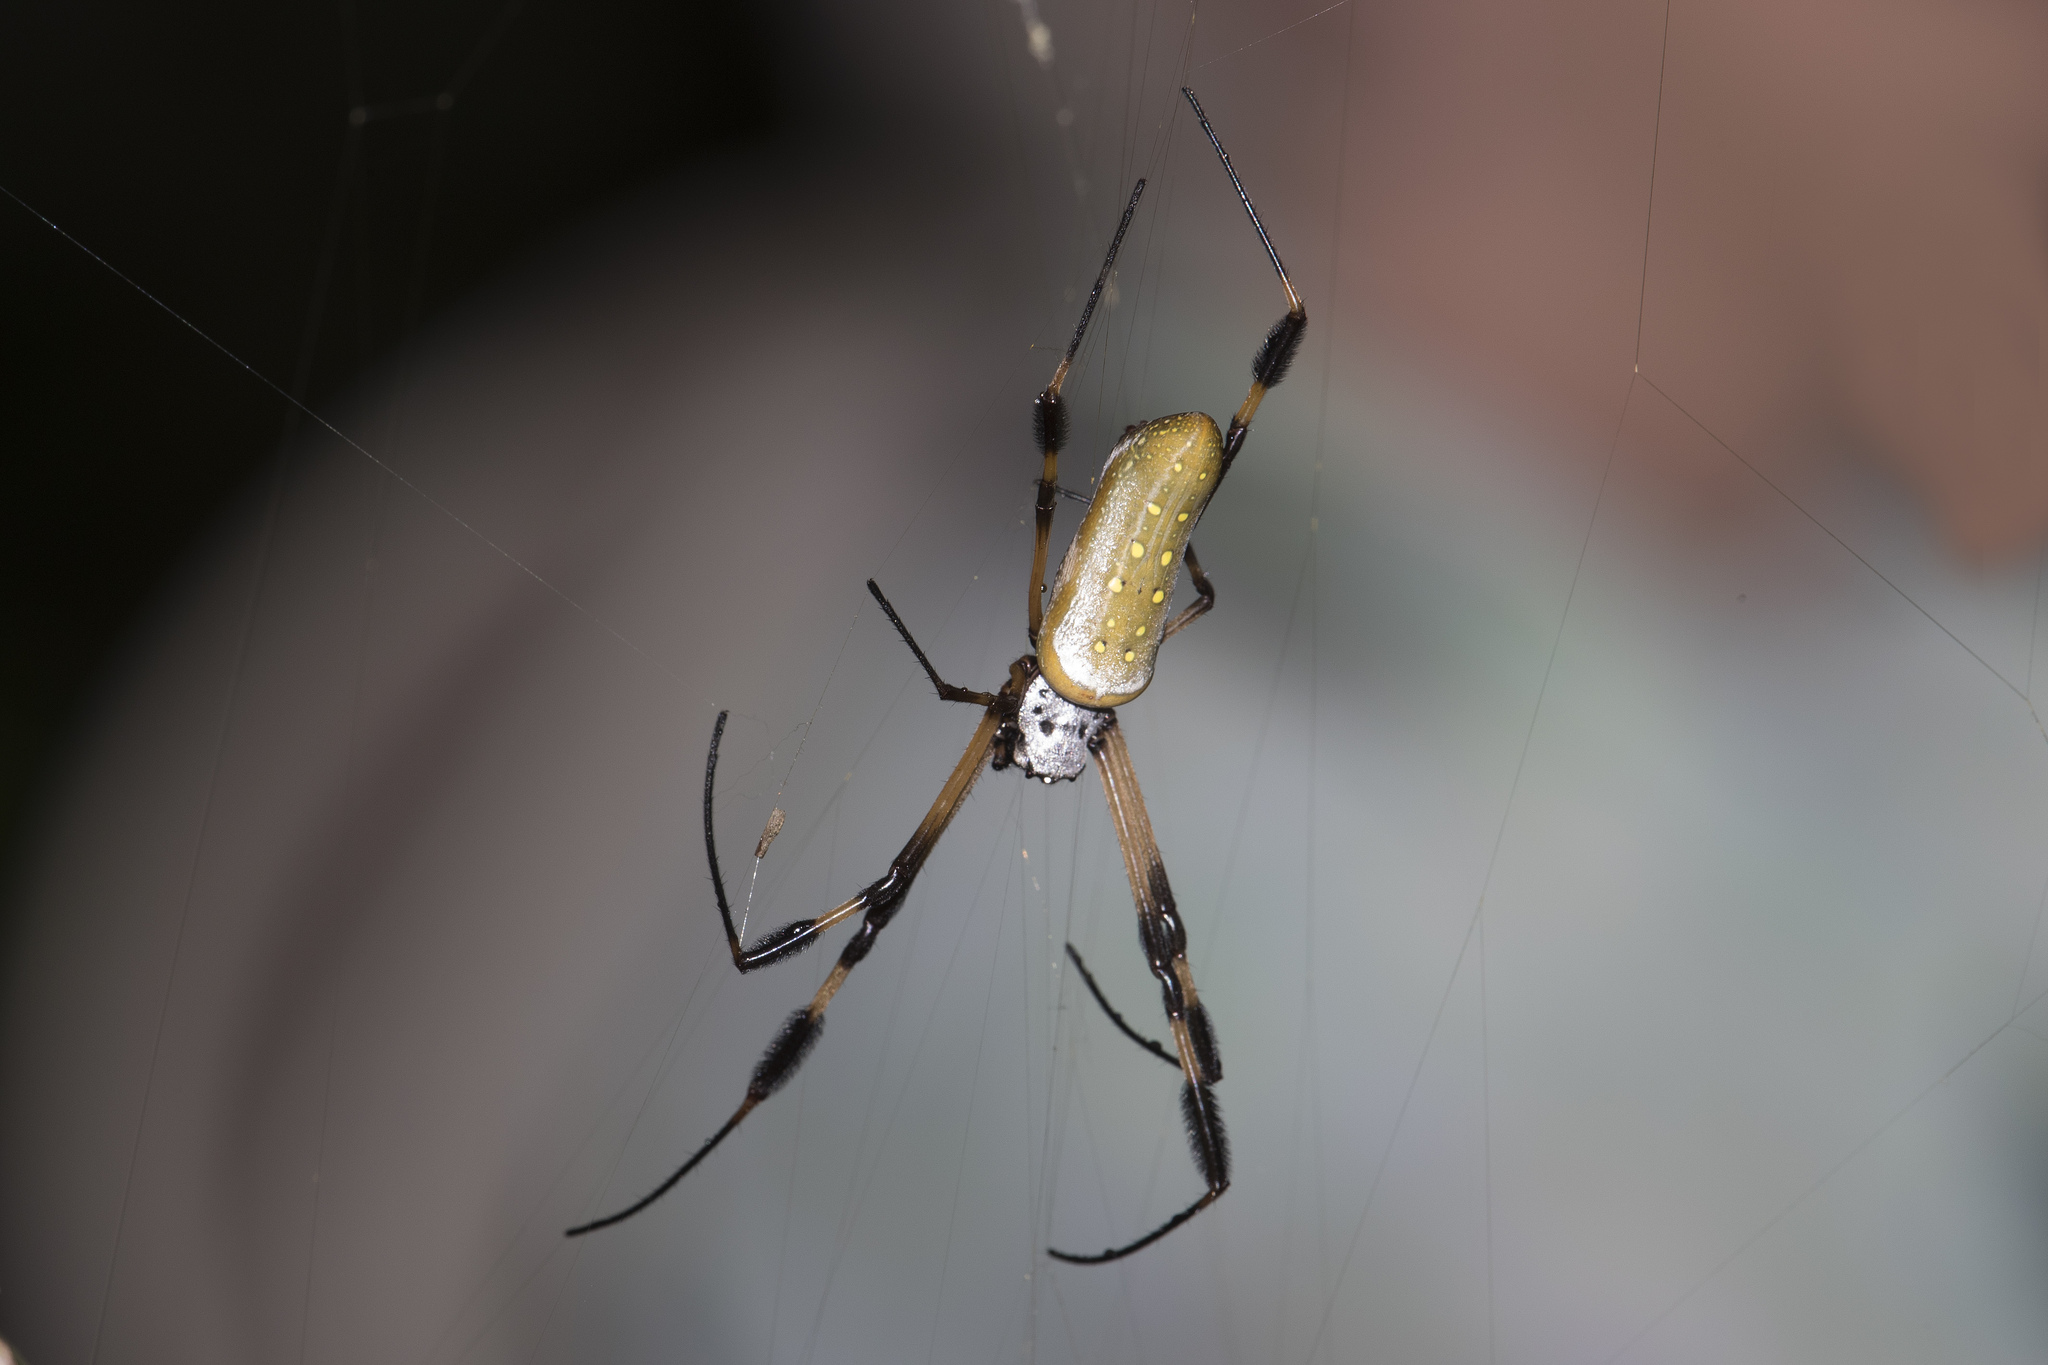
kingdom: Animalia
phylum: Arthropoda
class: Arachnida
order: Araneae
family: Araneidae
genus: Trichonephila
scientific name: Trichonephila clavipes
